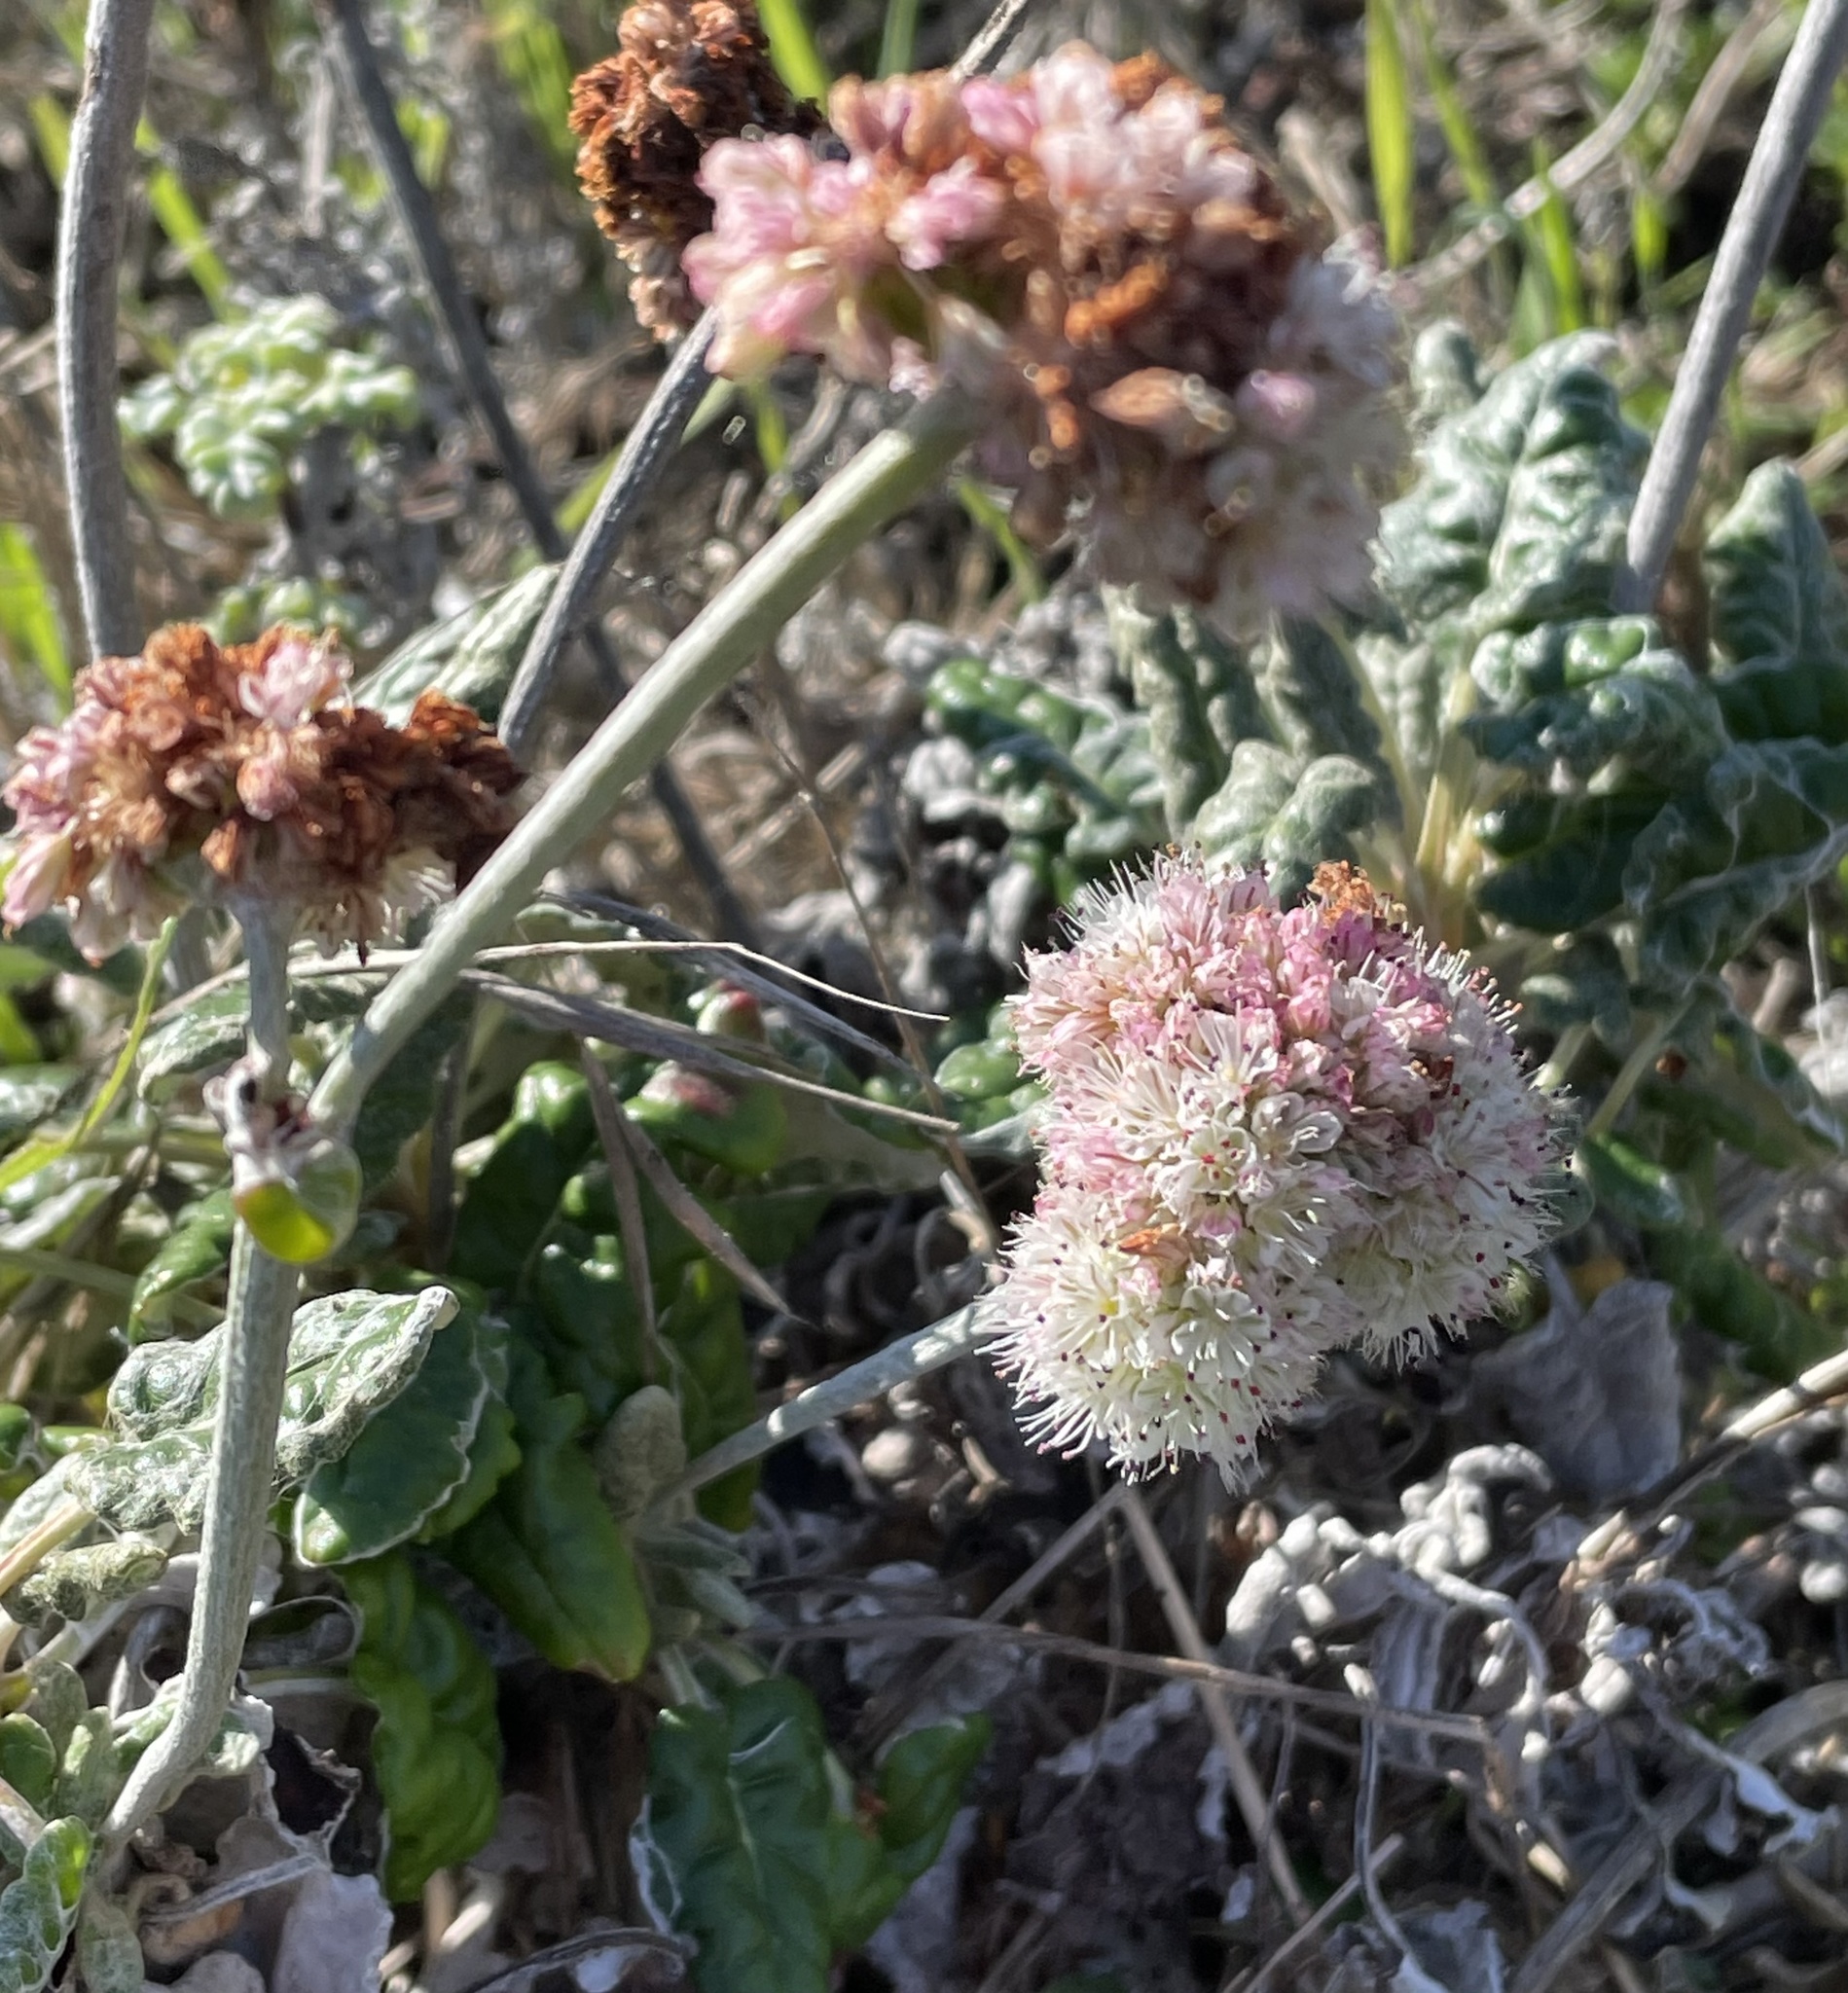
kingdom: Plantae
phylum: Tracheophyta
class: Magnoliopsida
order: Caryophyllales
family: Polygonaceae
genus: Eriogonum
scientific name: Eriogonum latifolium
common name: Seaside wild buckwheat
